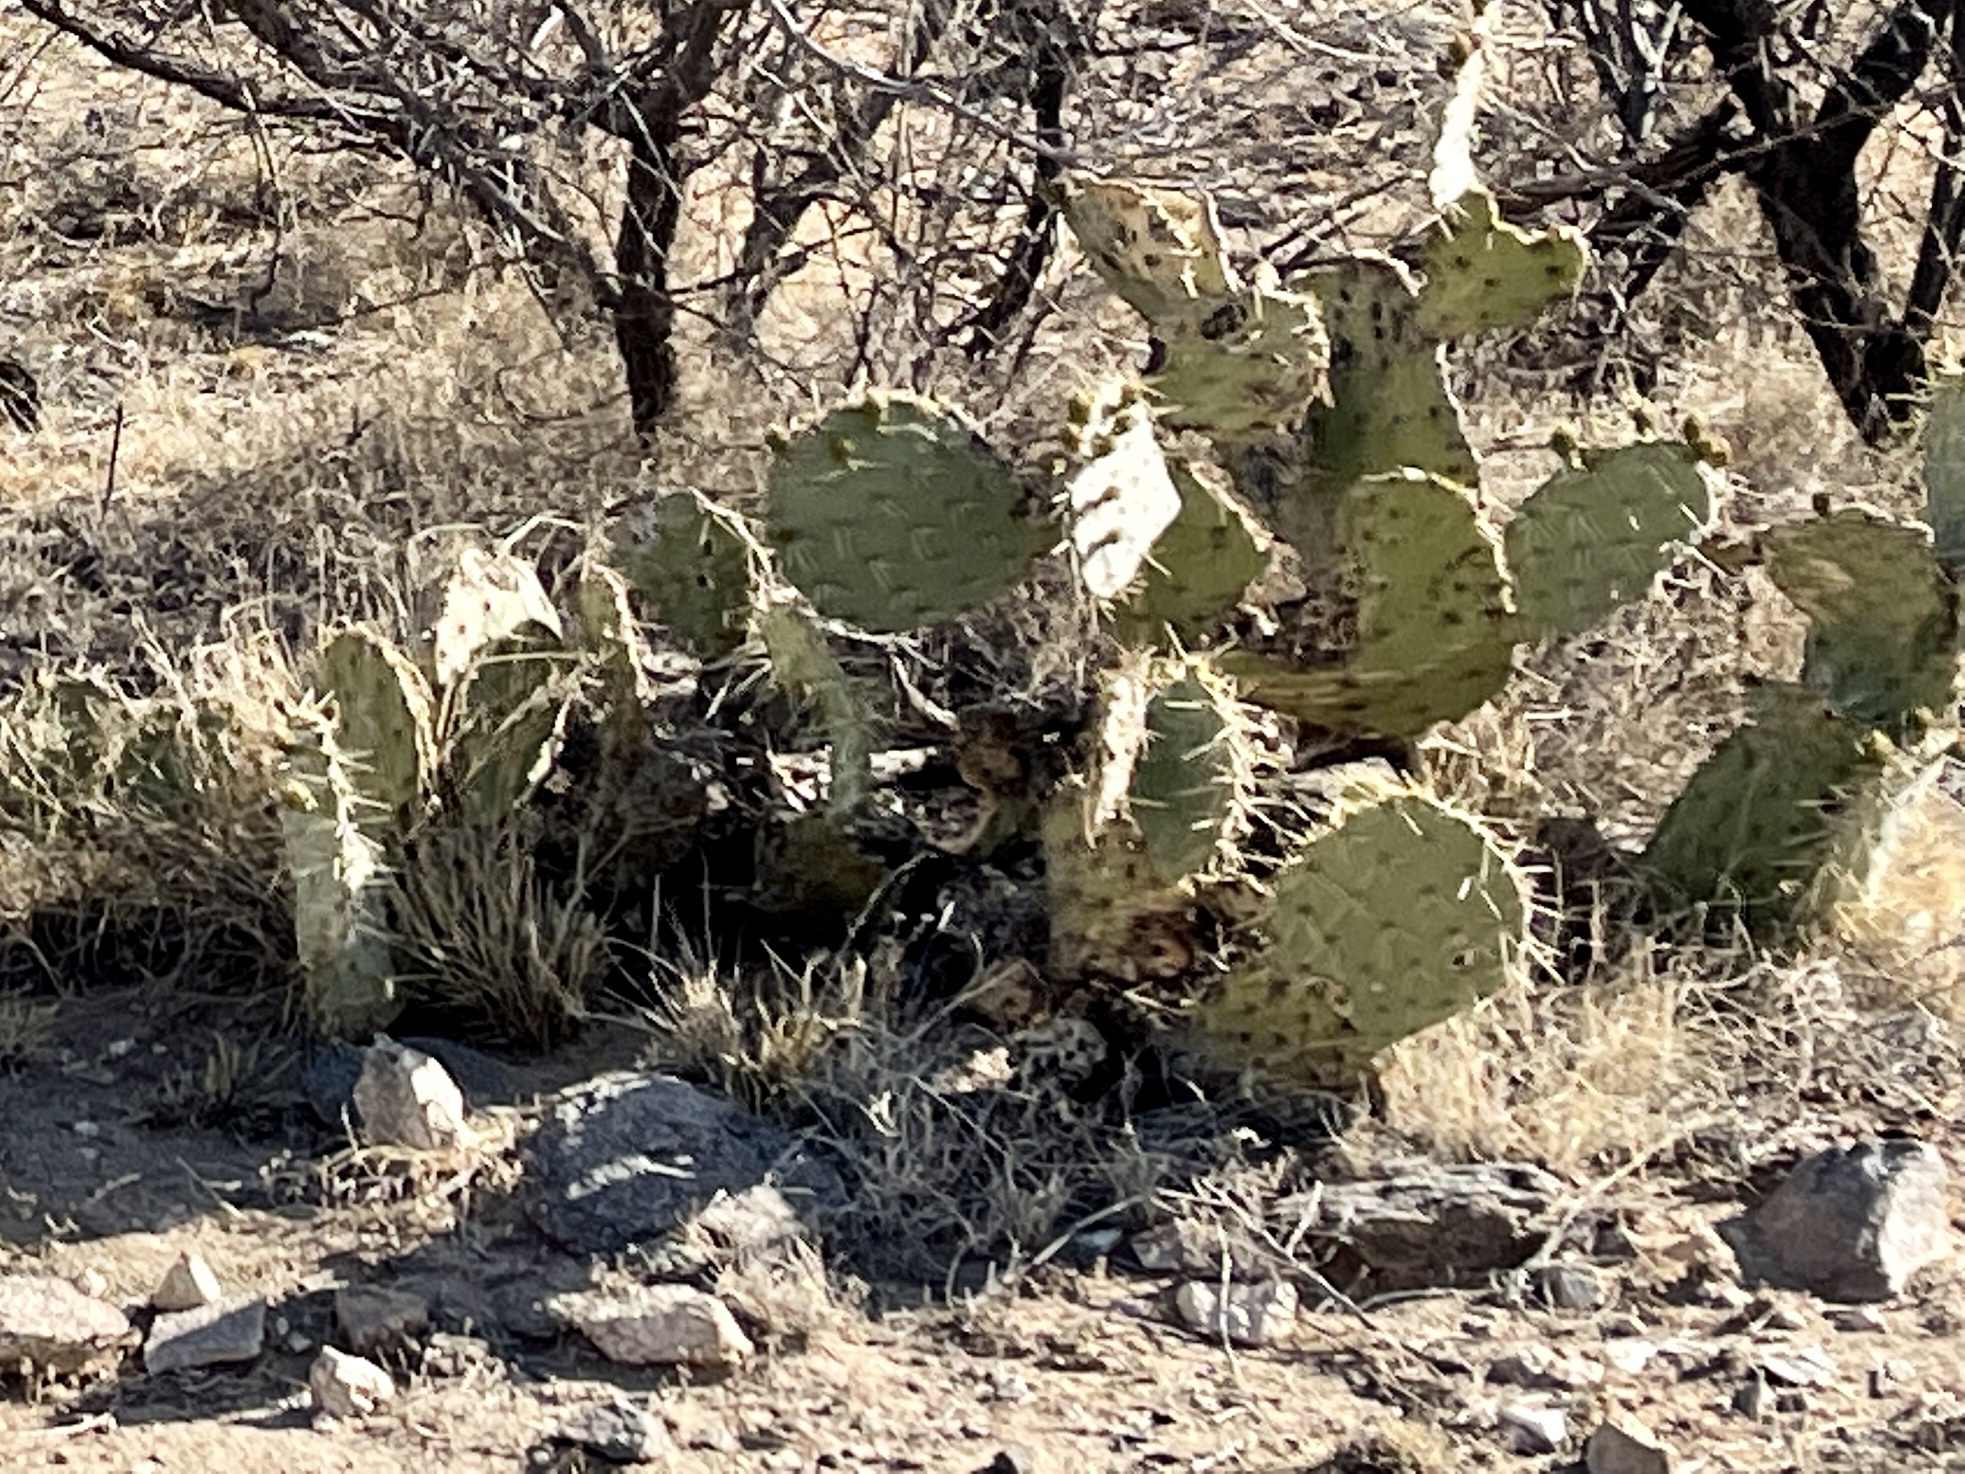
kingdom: Plantae
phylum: Tracheophyta
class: Magnoliopsida
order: Caryophyllales
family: Cactaceae
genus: Opuntia
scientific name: Opuntia engelmannii
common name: Cactus-apple
